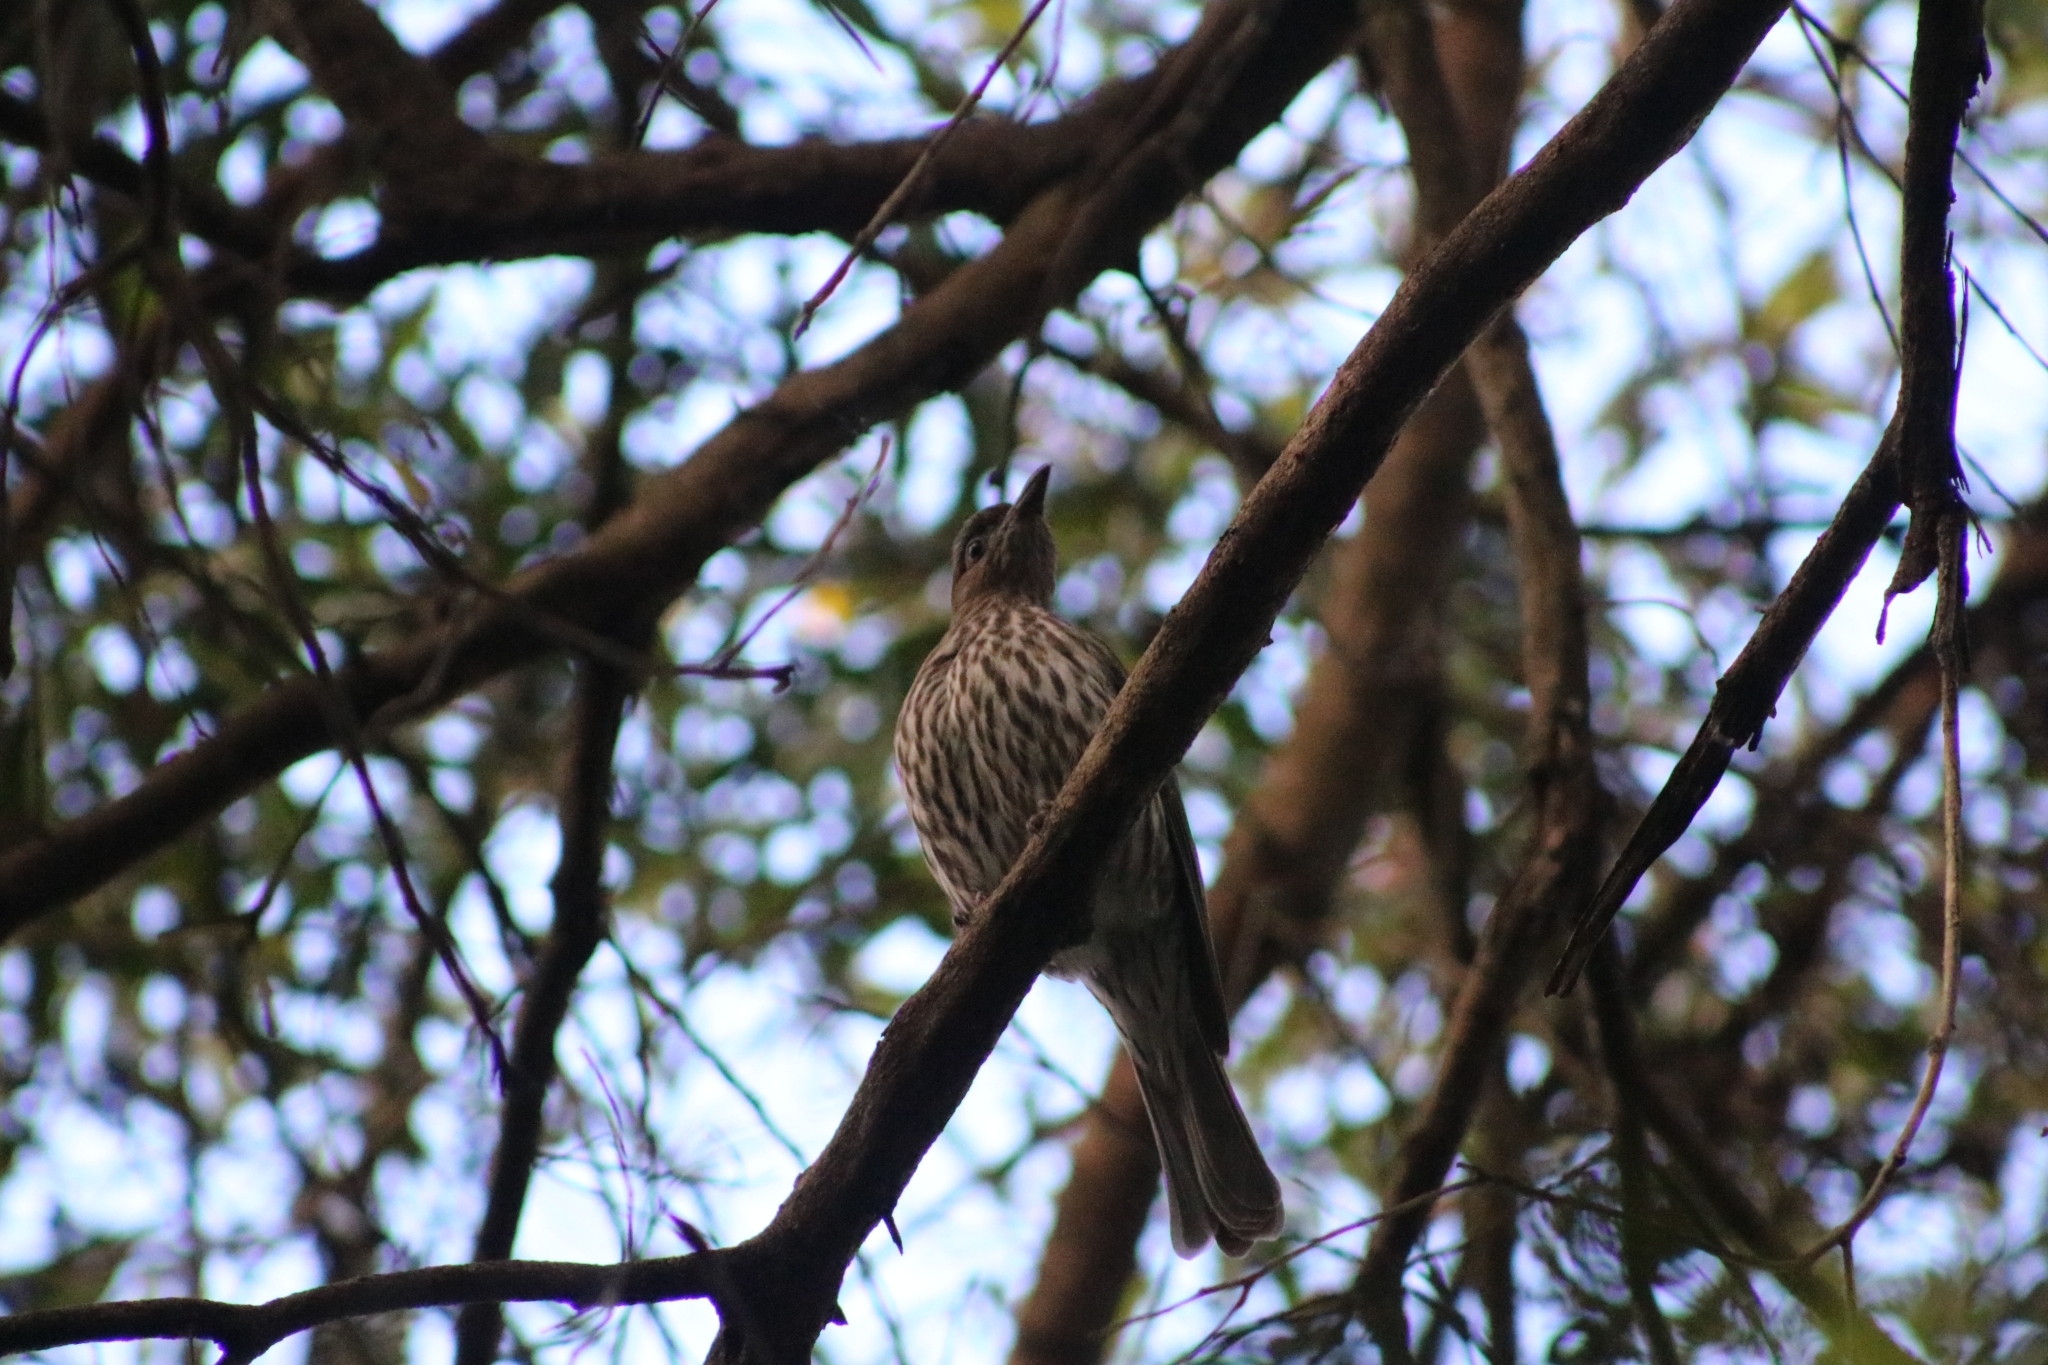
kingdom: Animalia
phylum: Chordata
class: Aves
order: Passeriformes
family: Oriolidae
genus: Sphecotheres
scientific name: Sphecotheres vieilloti
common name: Australasian figbird
